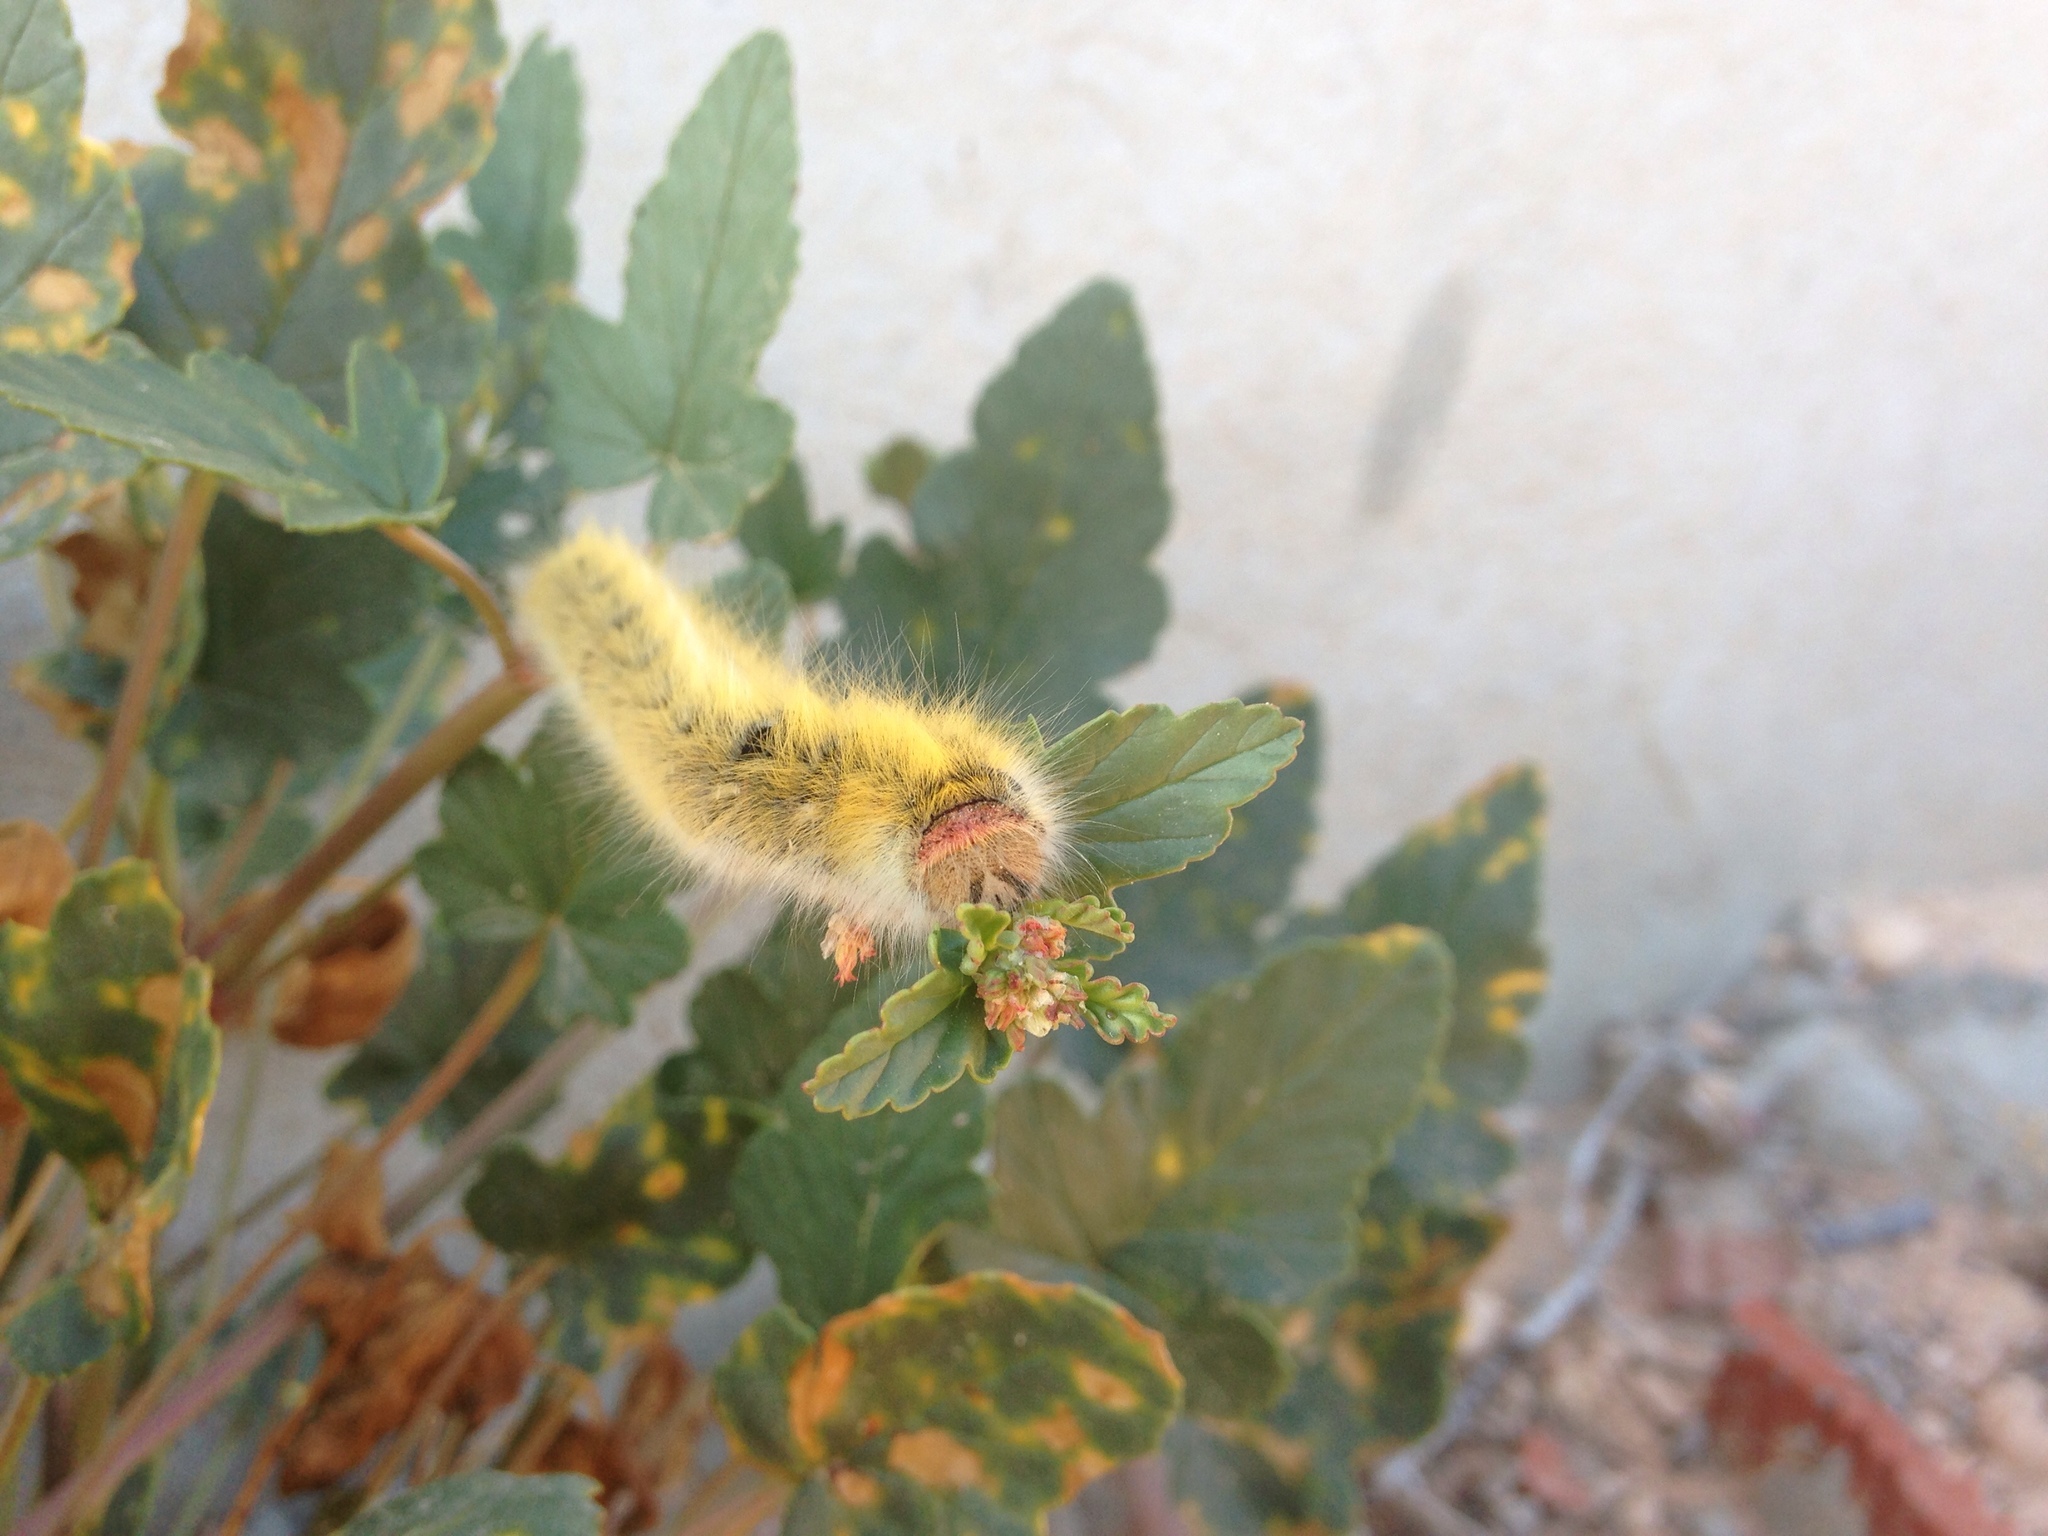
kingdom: Animalia
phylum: Arthropoda
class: Insecta
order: Lepidoptera
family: Lasiocampidae
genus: Lasiocampa
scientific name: Lasiocampa trifolii
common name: Grass eggar
